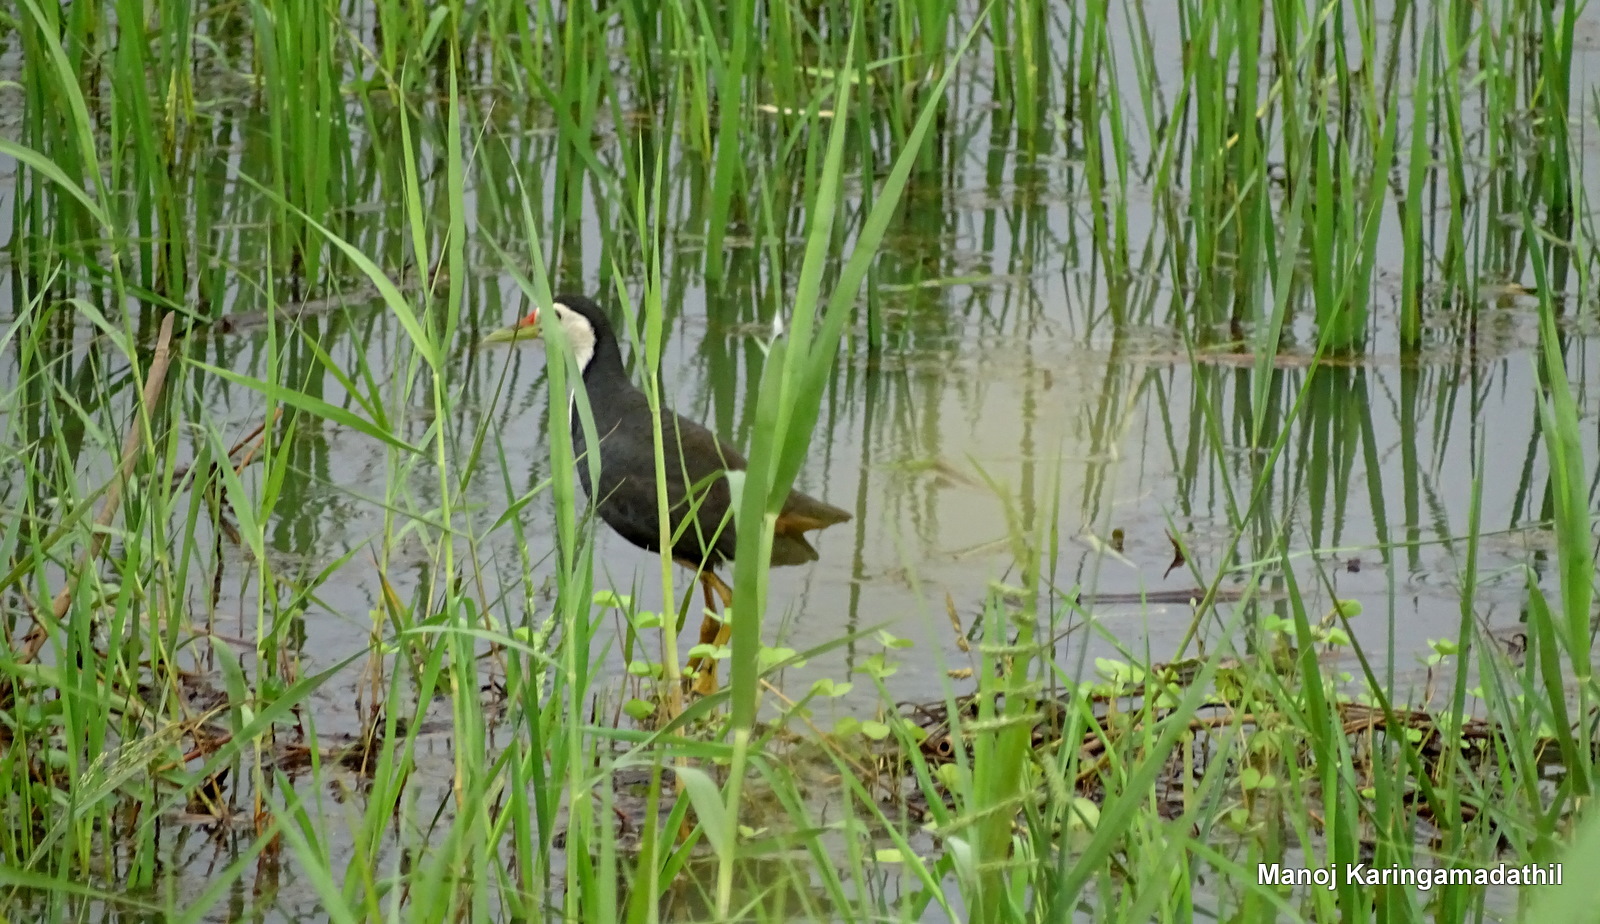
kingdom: Animalia
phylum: Chordata
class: Aves
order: Gruiformes
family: Rallidae
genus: Amaurornis
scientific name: Amaurornis phoenicurus
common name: White-breasted waterhen
